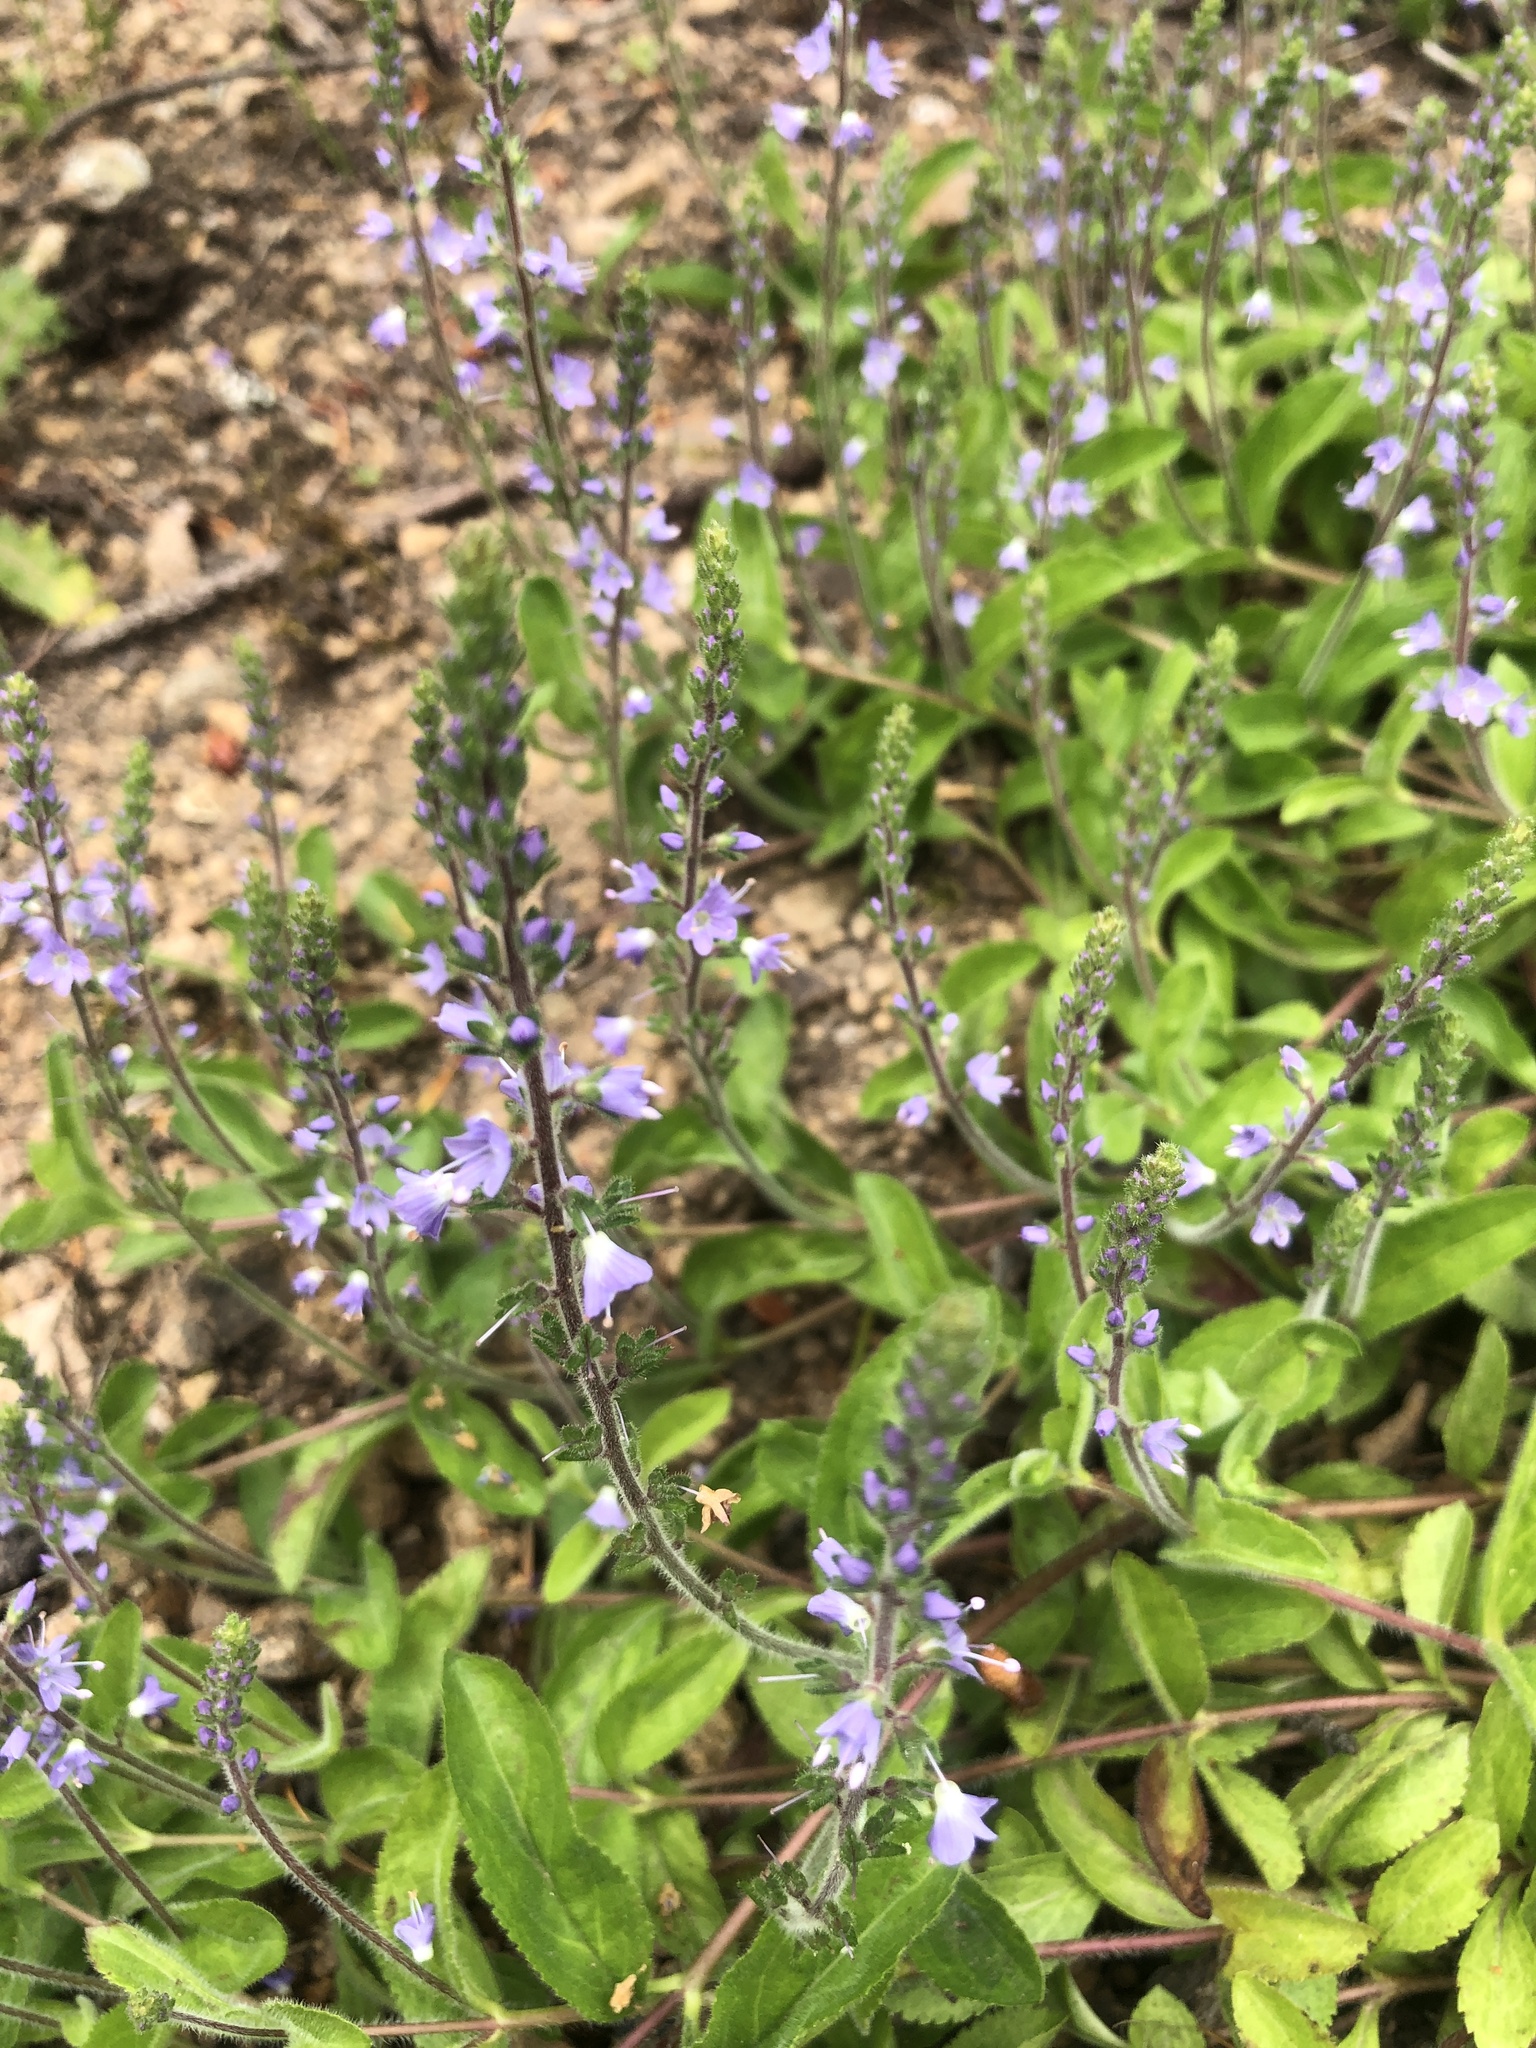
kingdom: Plantae
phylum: Tracheophyta
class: Magnoliopsida
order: Lamiales
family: Plantaginaceae
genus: Veronica
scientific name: Veronica officinalis
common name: Common speedwell
